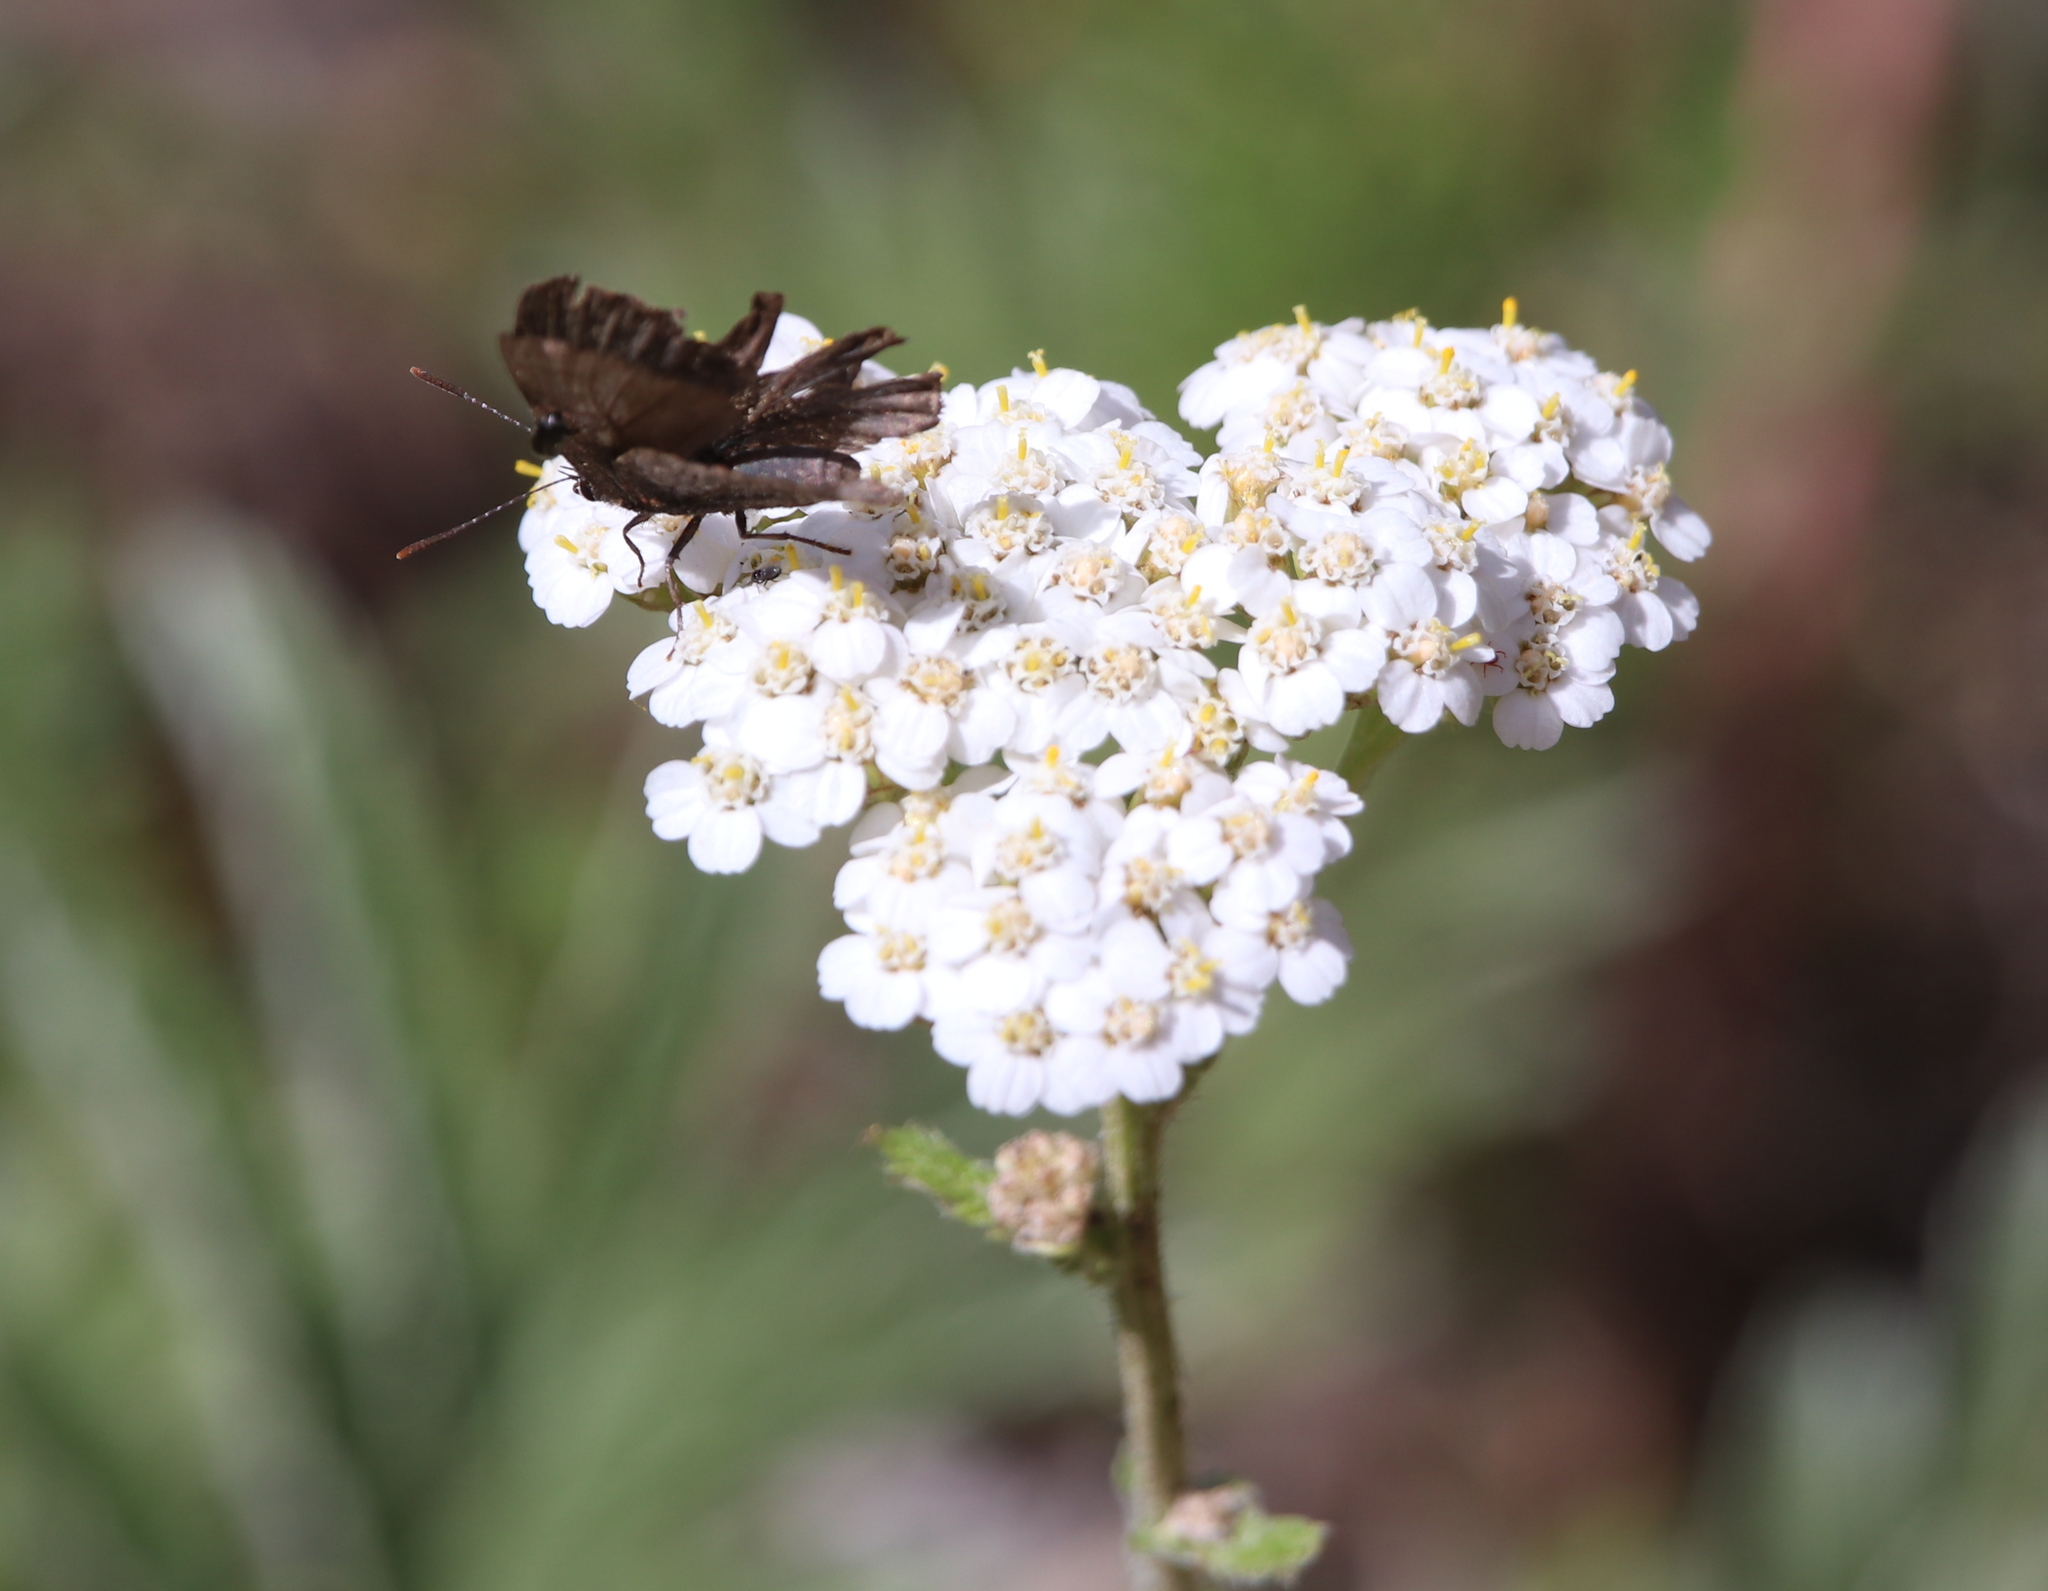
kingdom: Animalia
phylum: Arthropoda
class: Insecta
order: Lepidoptera
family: Lycaenidae
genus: Mitoura
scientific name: Mitoura spinetorum
